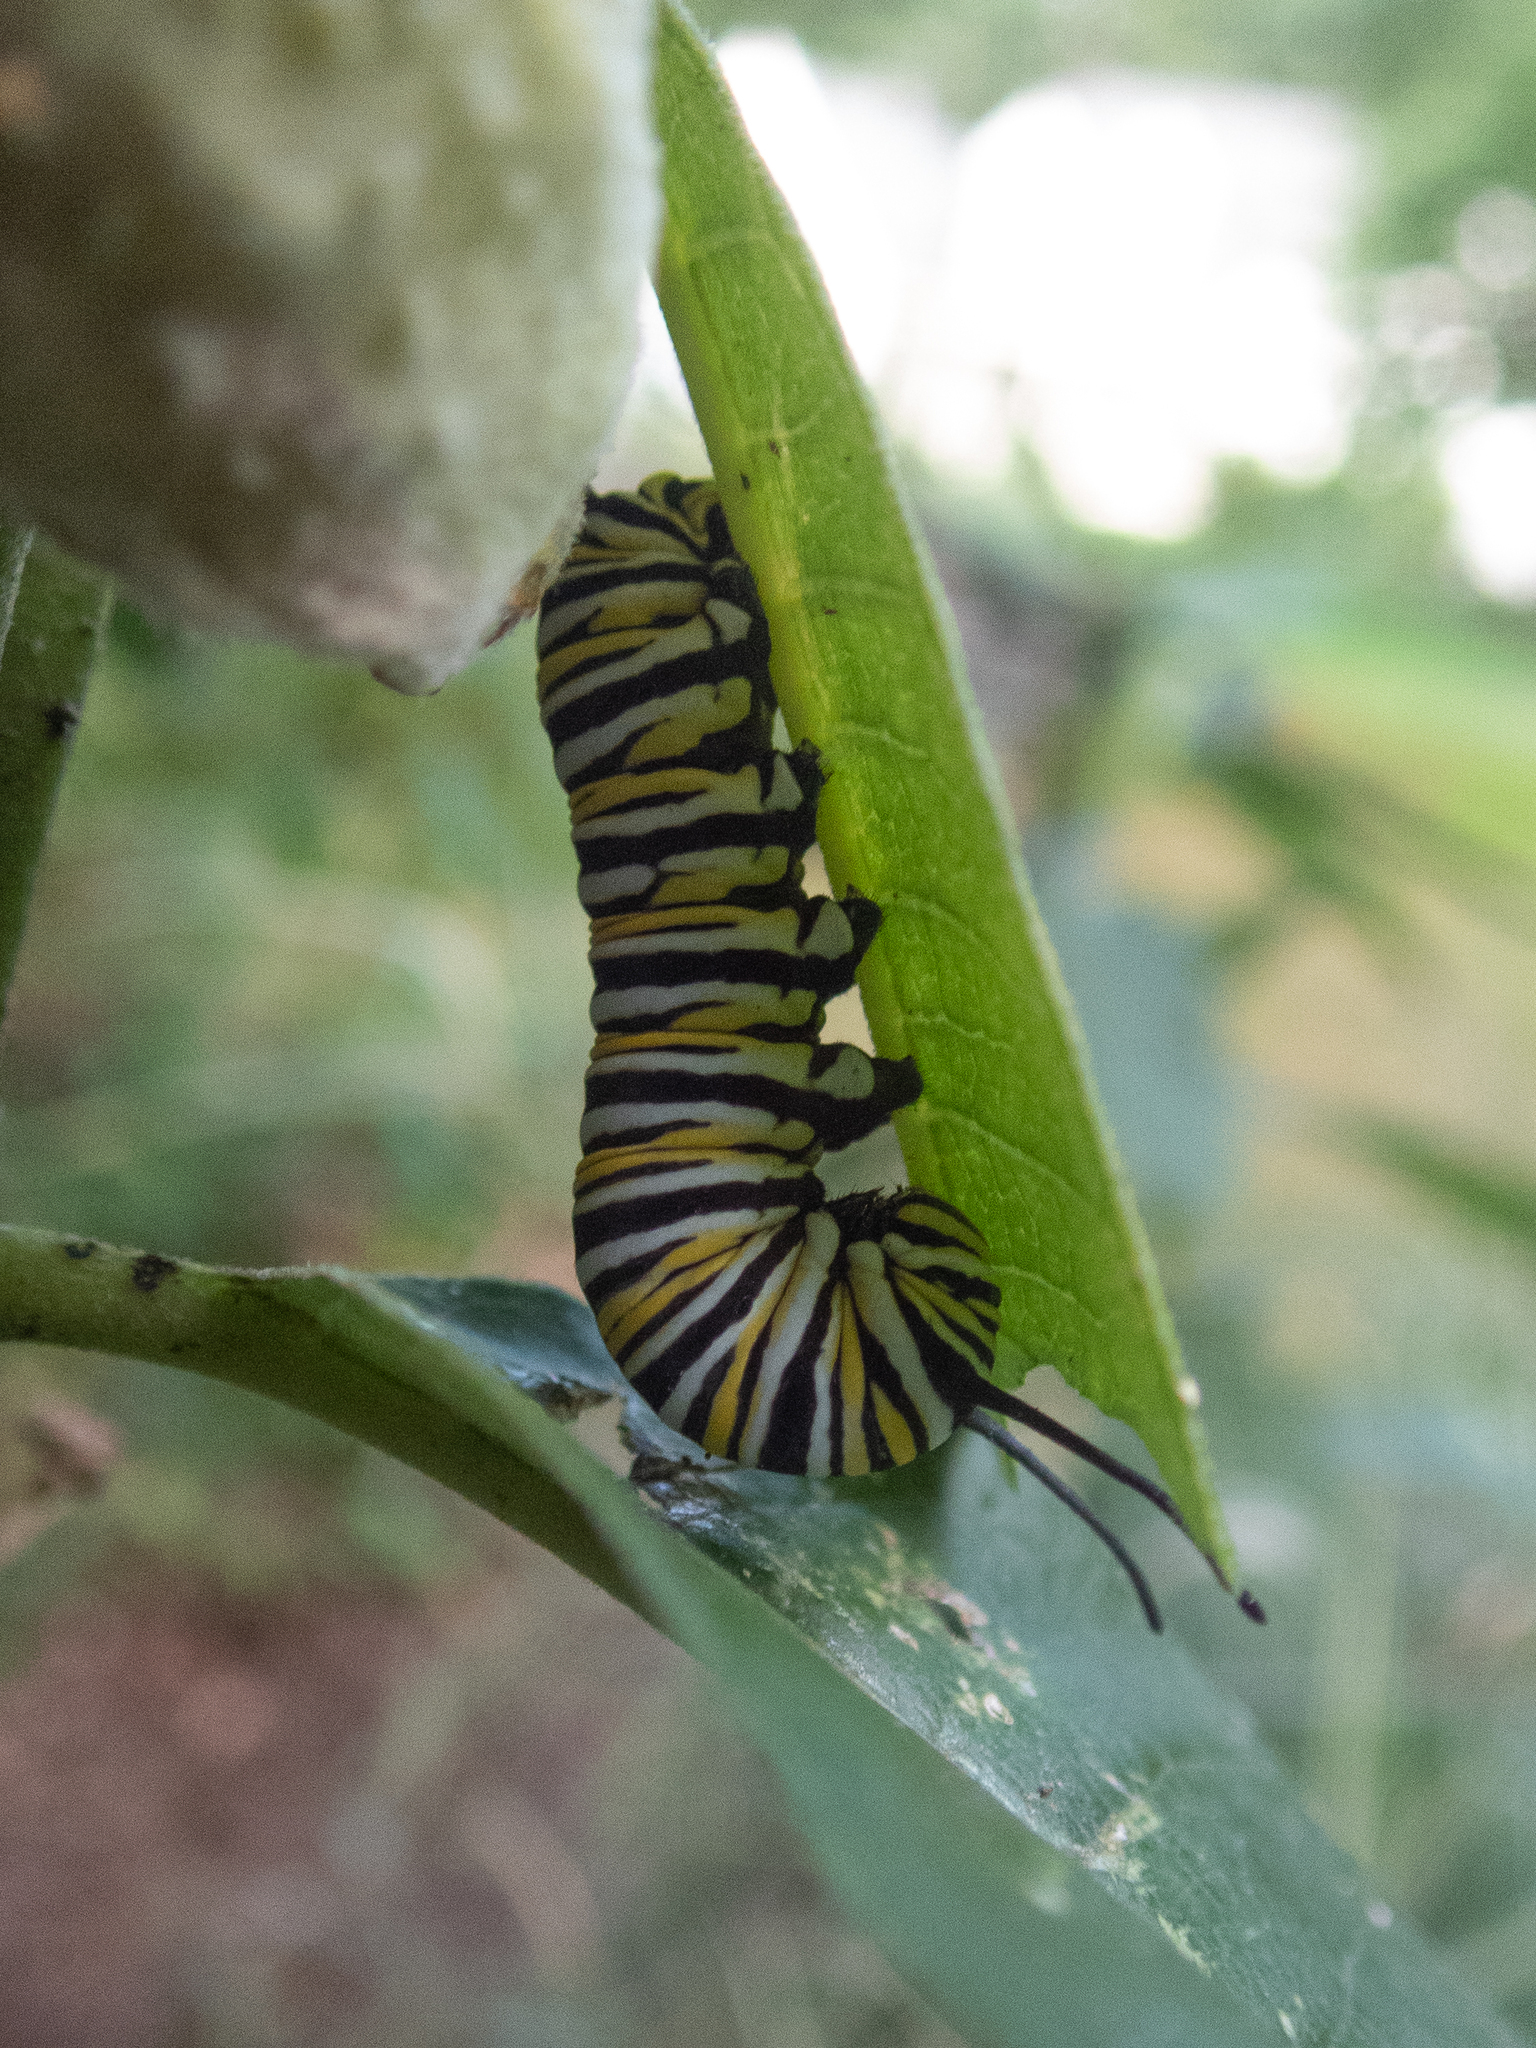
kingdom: Animalia
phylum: Arthropoda
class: Insecta
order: Lepidoptera
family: Nymphalidae
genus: Danaus
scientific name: Danaus plexippus
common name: Monarch
